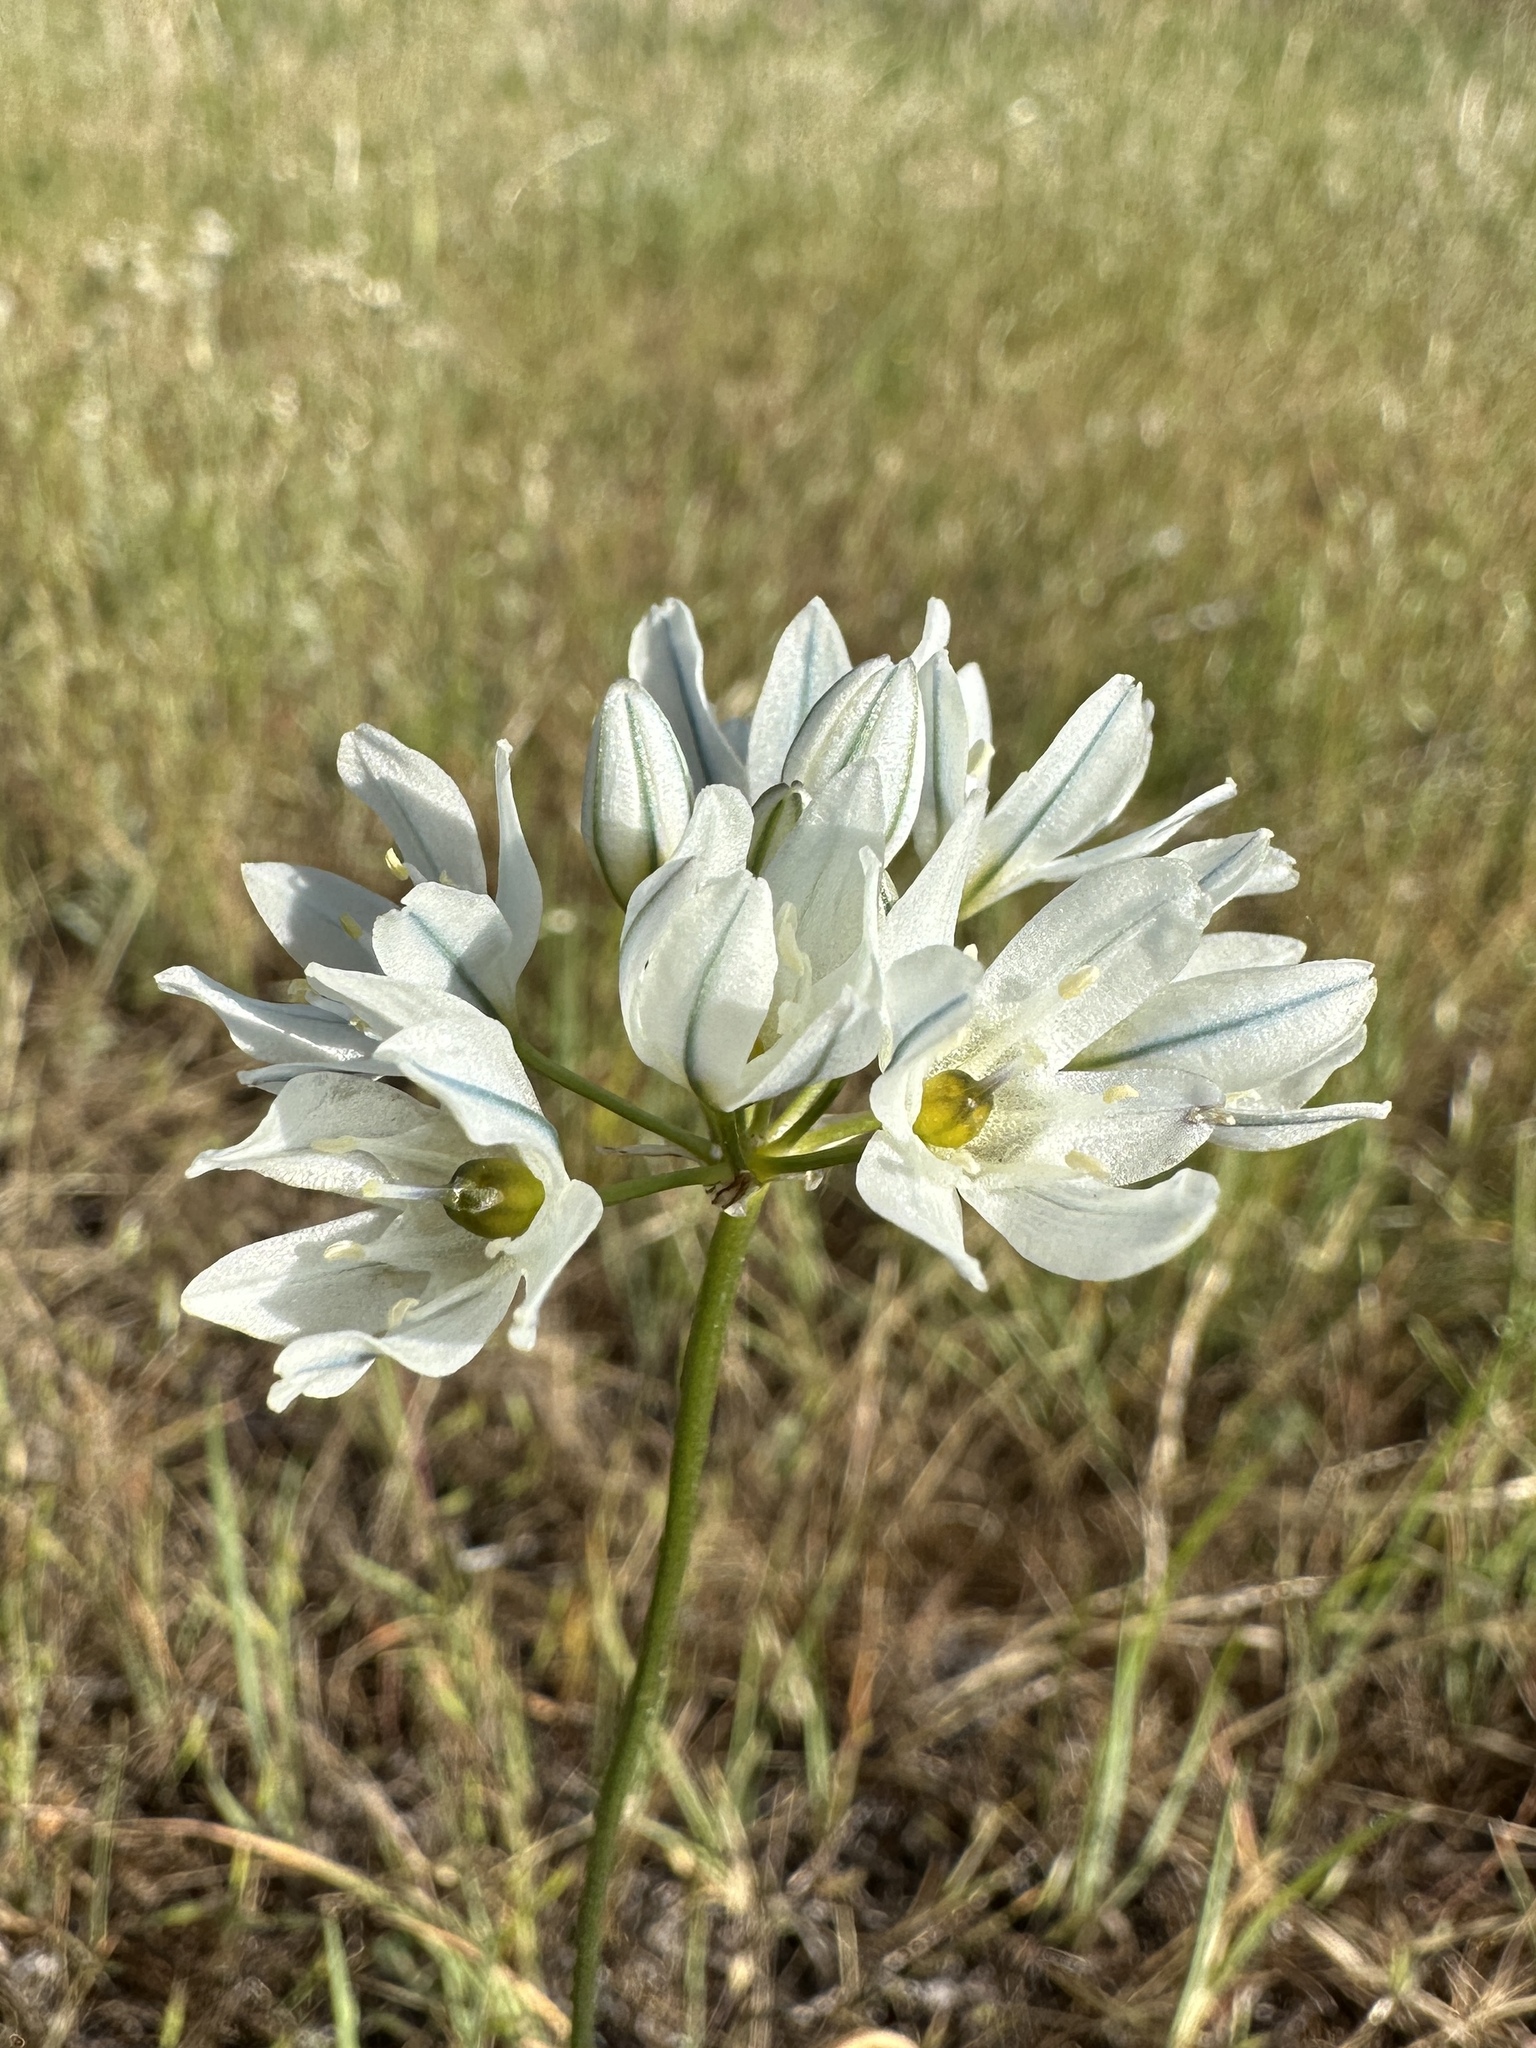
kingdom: Plantae
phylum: Tracheophyta
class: Liliopsida
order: Asparagales
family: Asparagaceae
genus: Triteleia
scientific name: Triteleia hyacinthina
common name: White brodiaea
